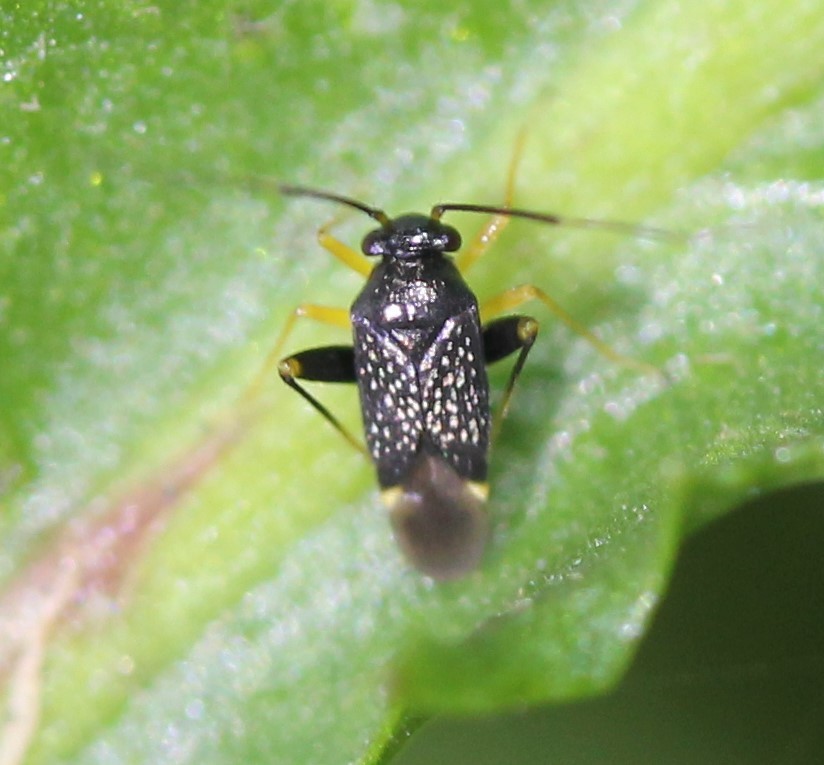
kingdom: Animalia
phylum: Arthropoda
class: Insecta
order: Hemiptera
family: Miridae
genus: Microtechnites
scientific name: Microtechnites bractatus
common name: Garden fleahopper
